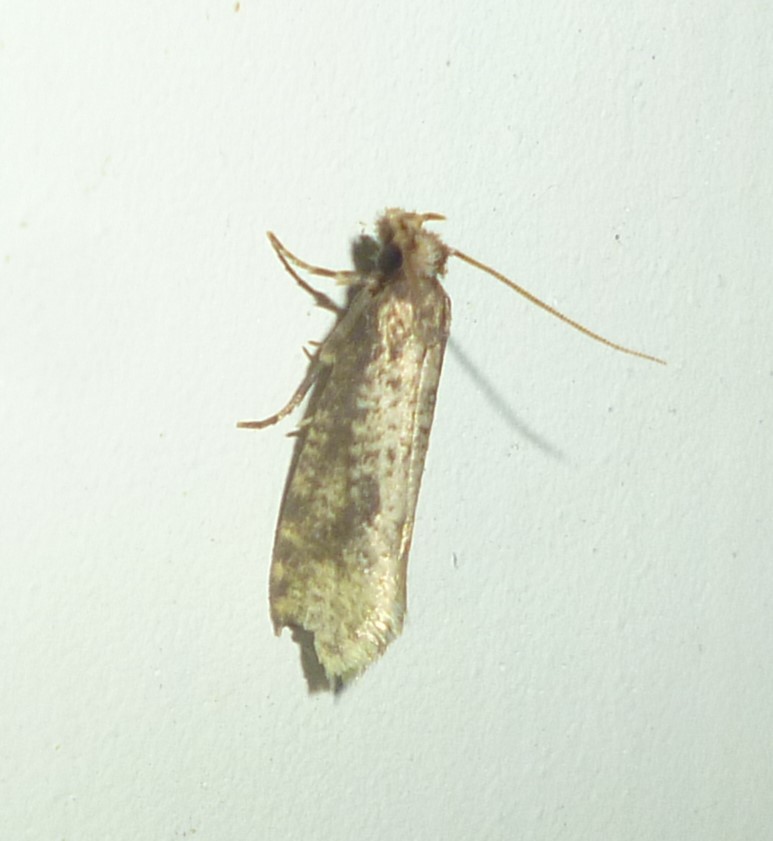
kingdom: Animalia
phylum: Arthropoda
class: Insecta
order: Lepidoptera
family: Tineidae
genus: Amydria
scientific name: Amydria effrentella
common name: Brown-blotched amydria moth
